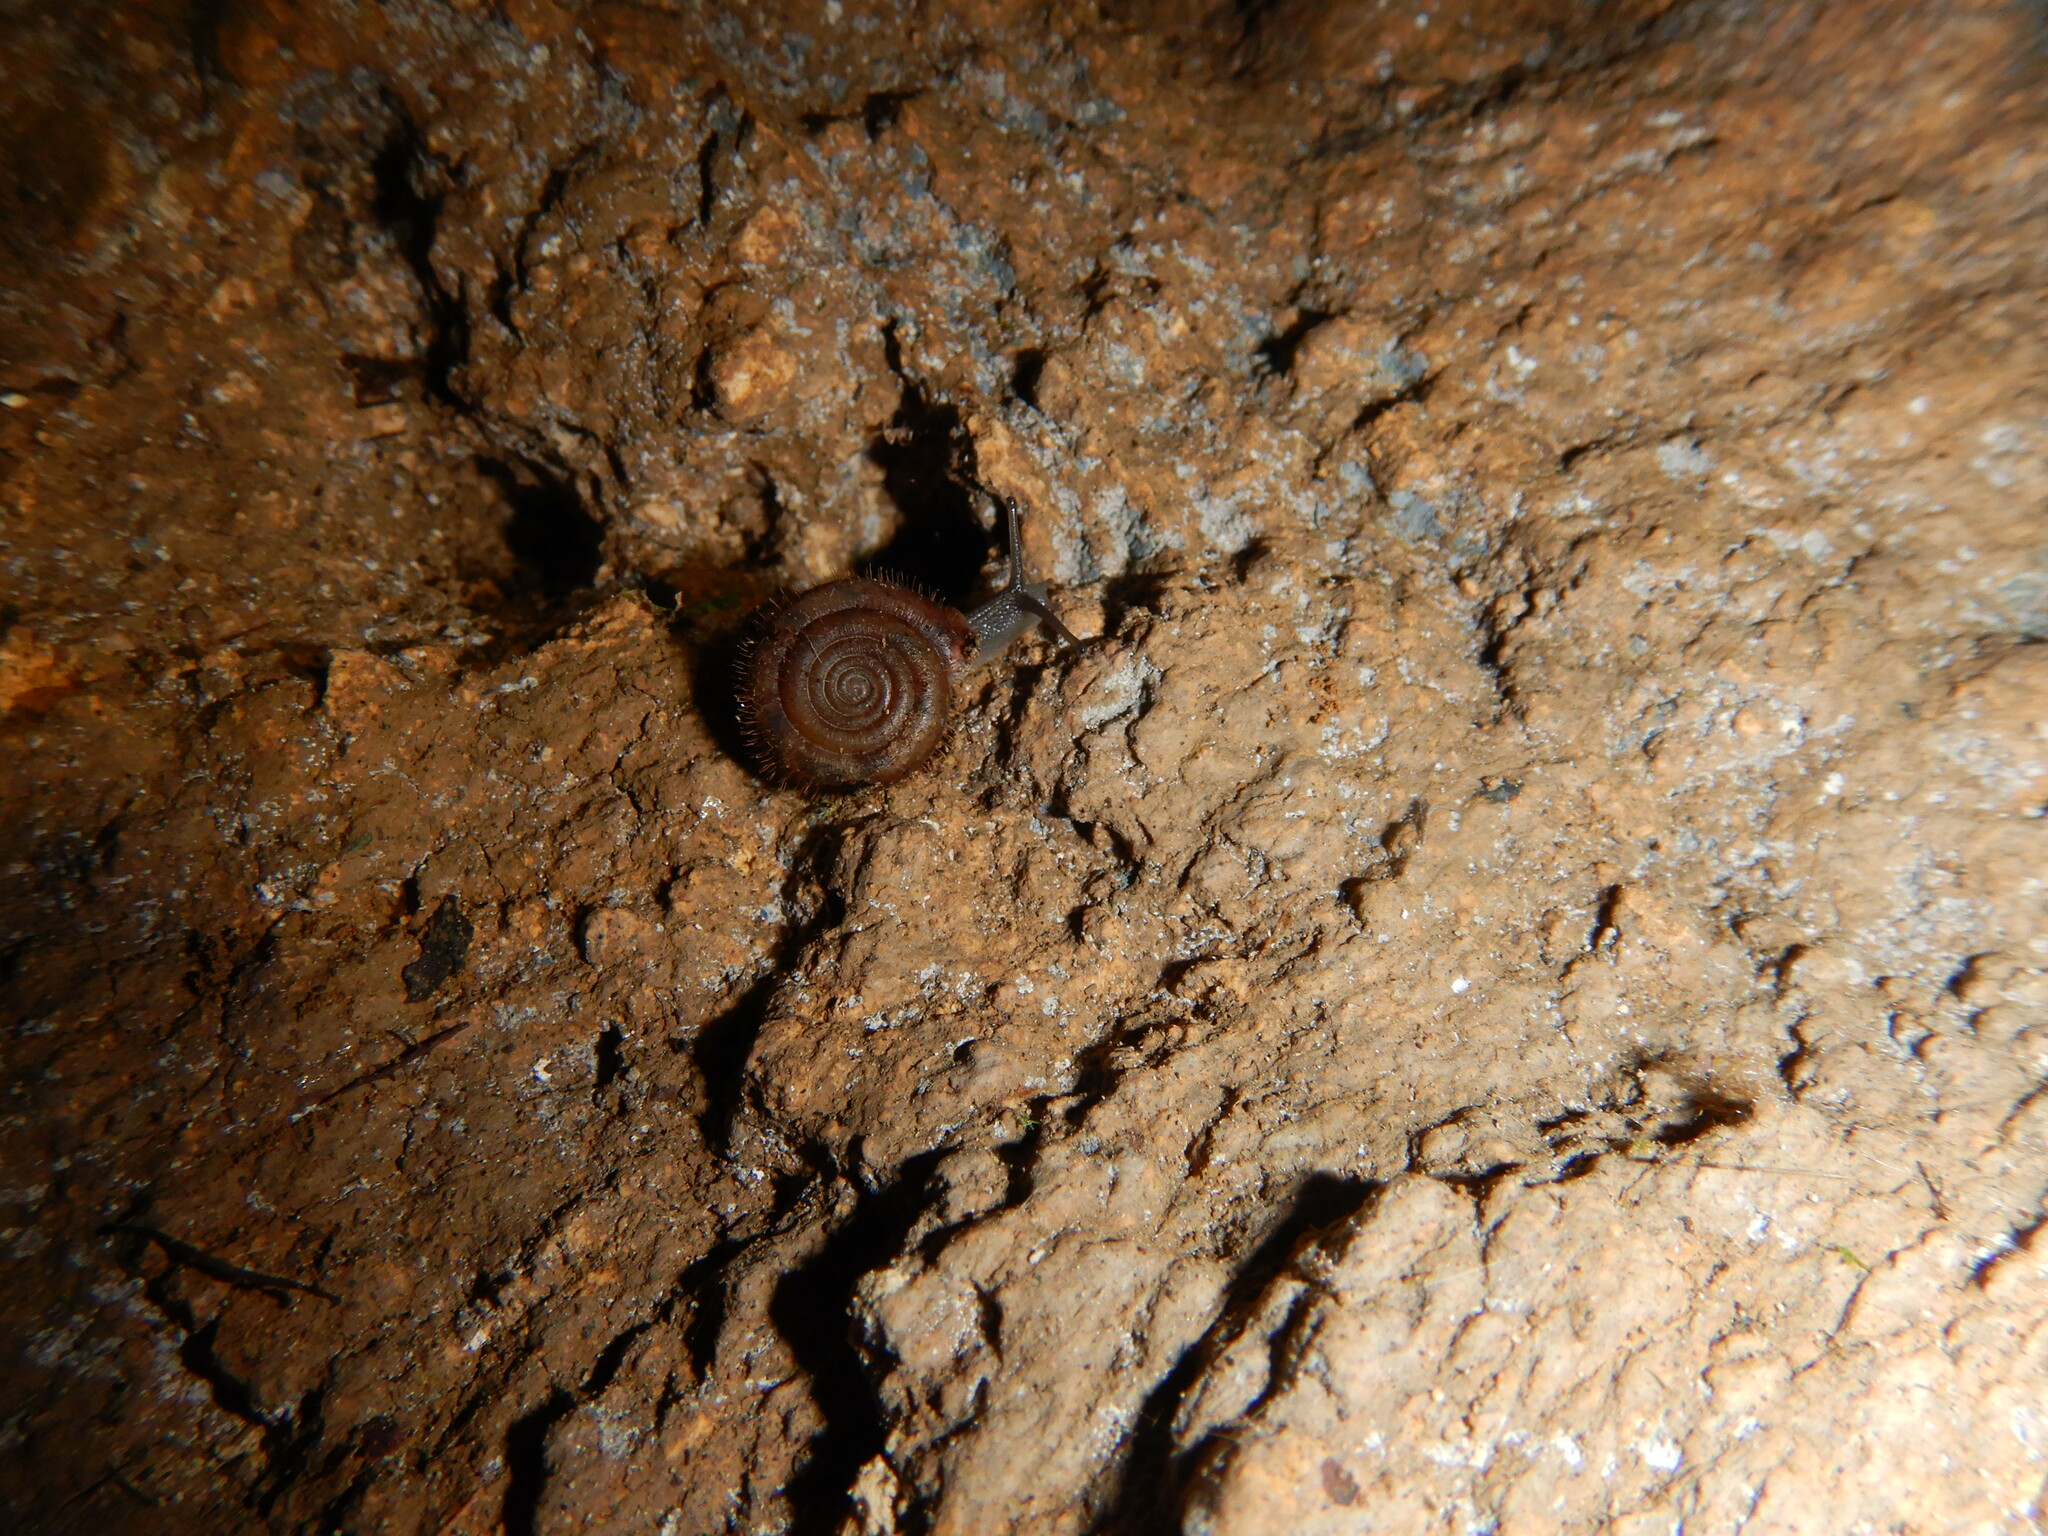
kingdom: Animalia
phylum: Mollusca
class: Gastropoda
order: Stylommatophora
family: Helicodontidae
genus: Helicodonta
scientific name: Helicodonta obvoluta
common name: Cheese snail
